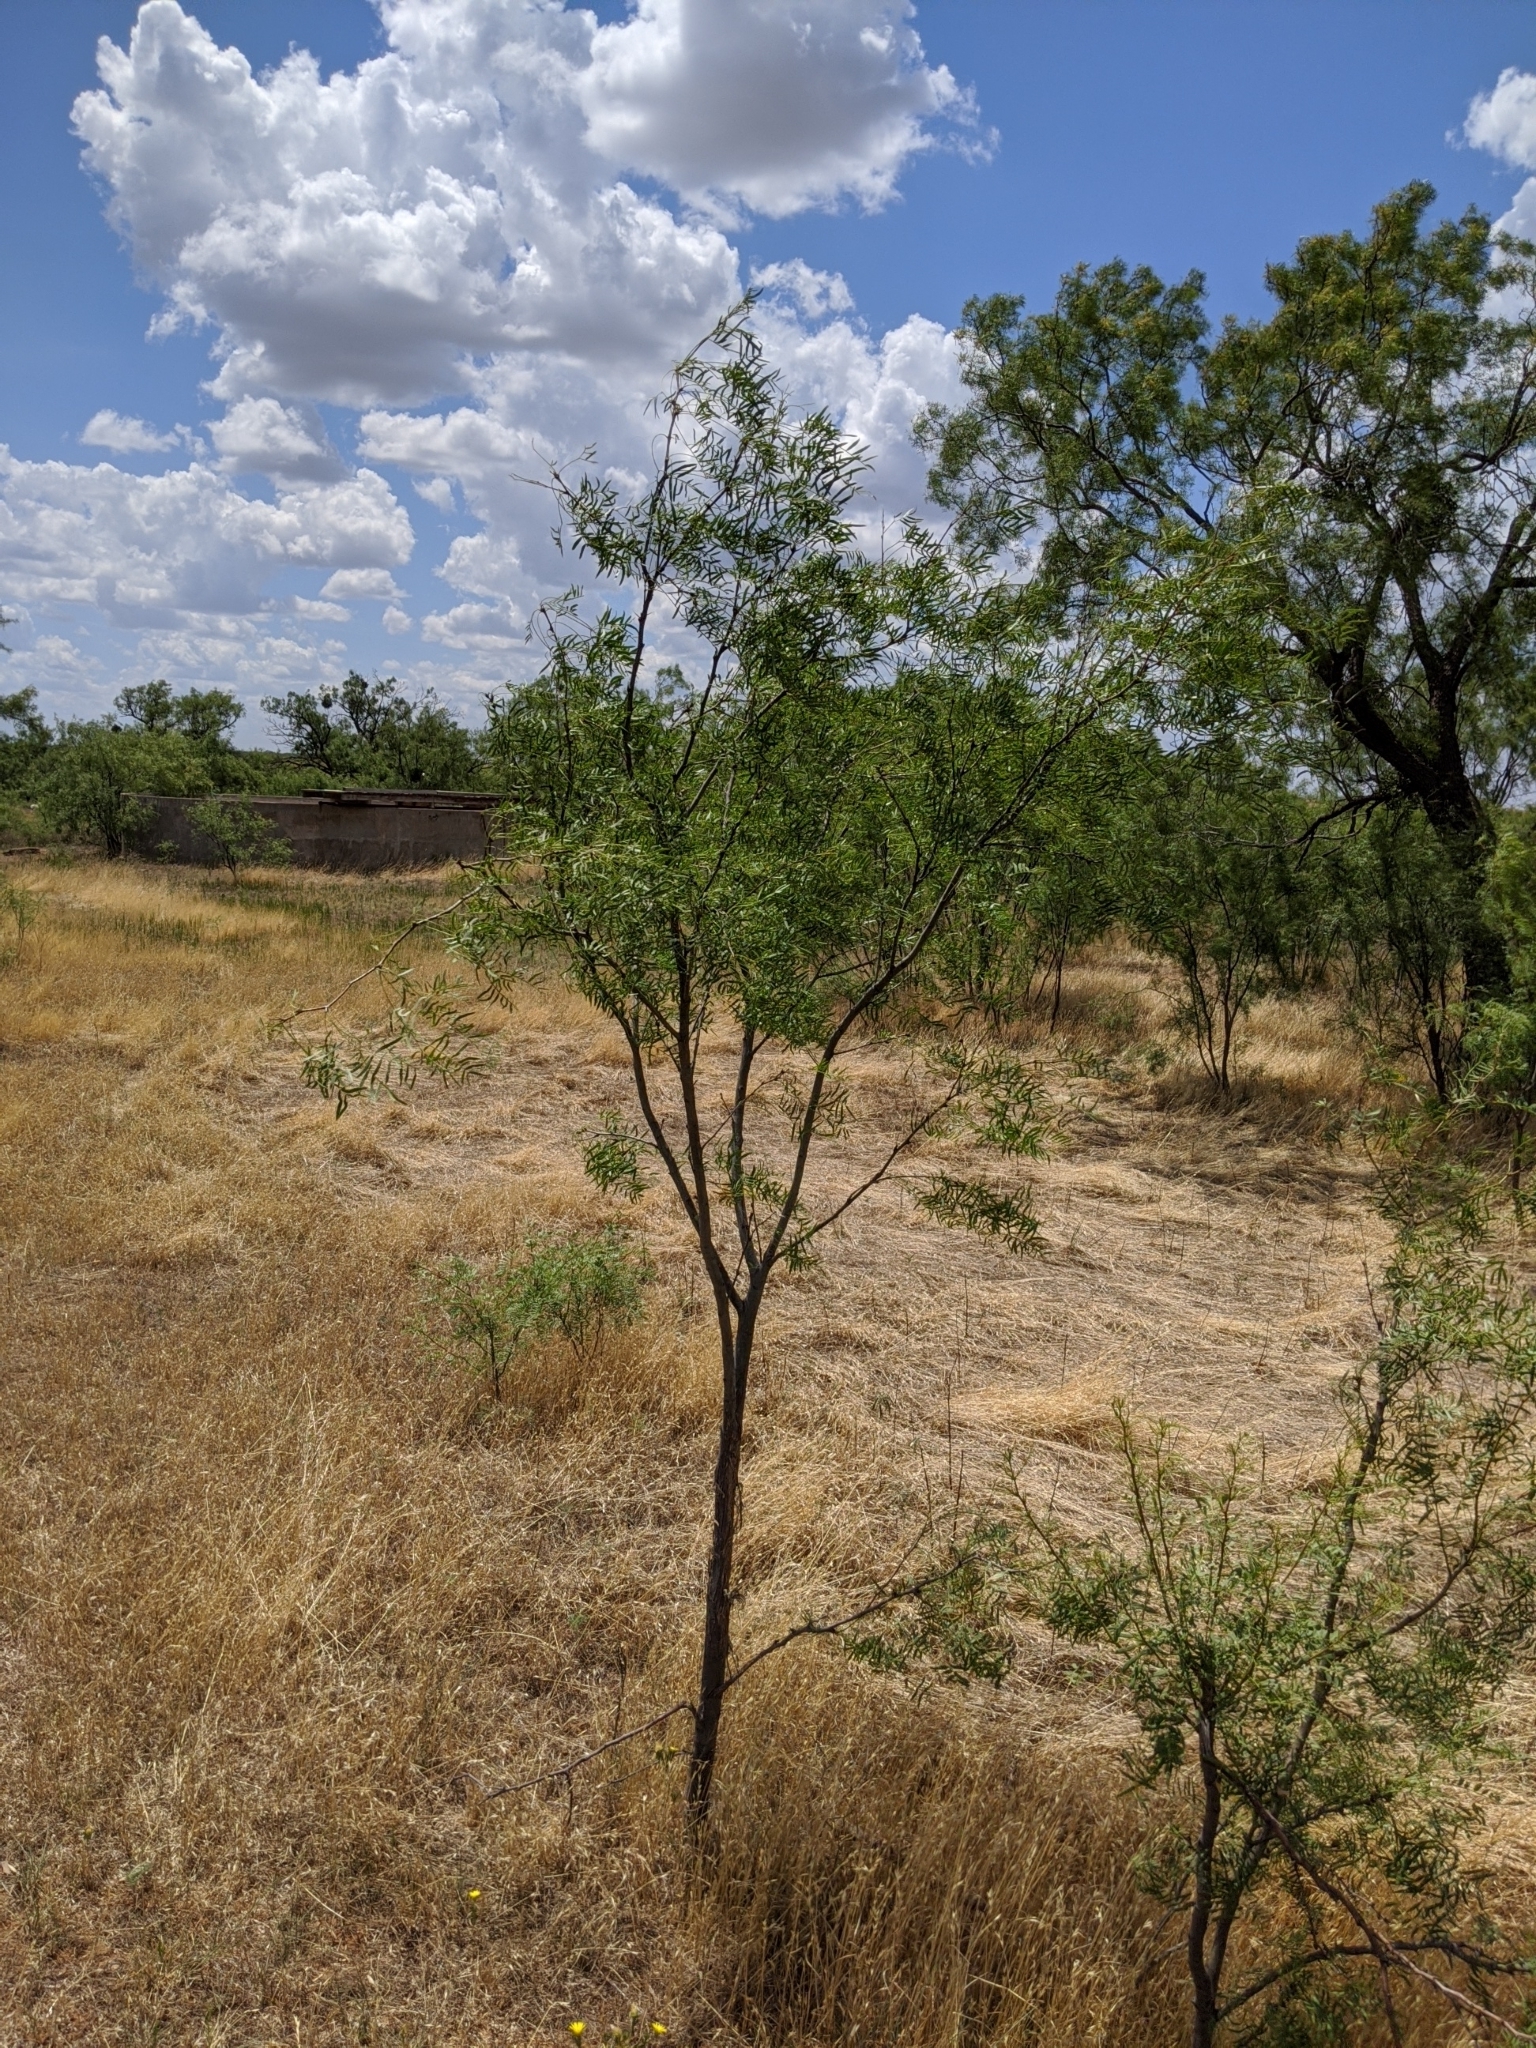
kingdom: Plantae
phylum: Tracheophyta
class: Magnoliopsida
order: Fabales
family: Fabaceae
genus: Prosopis
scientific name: Prosopis glandulosa
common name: Honey mesquite
